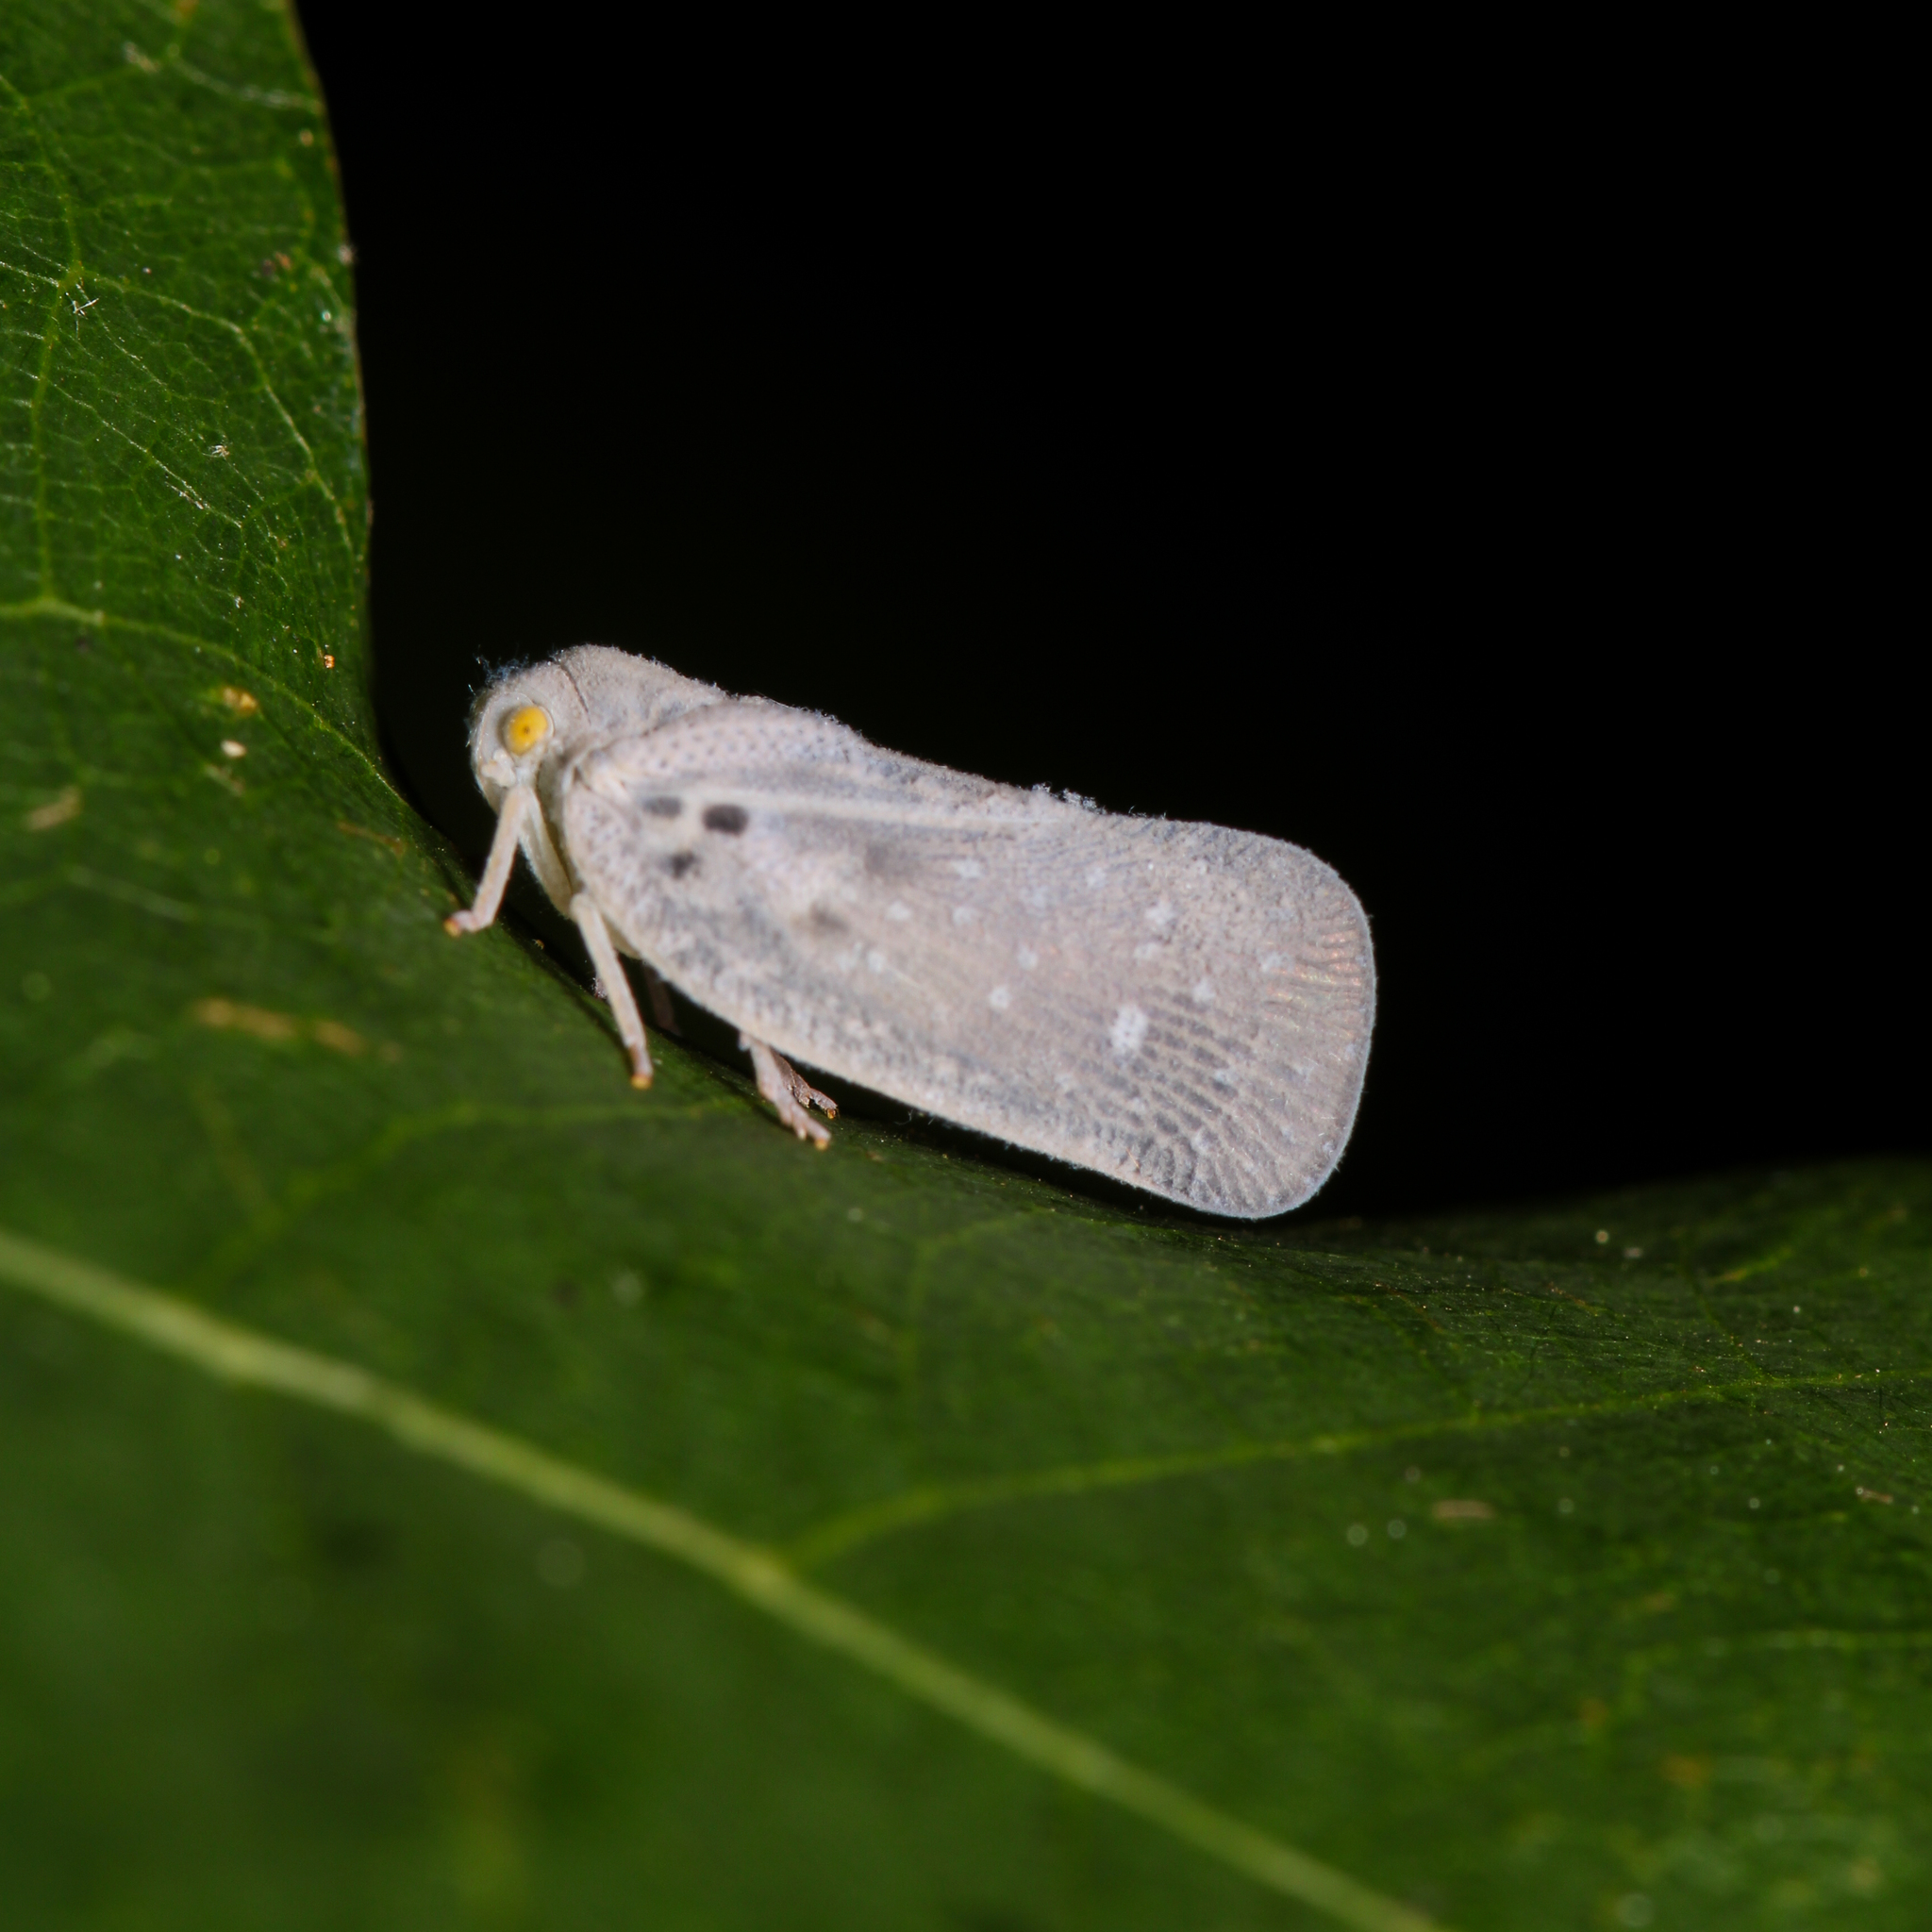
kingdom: Animalia
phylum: Arthropoda
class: Insecta
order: Hemiptera
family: Flatidae
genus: Metcalfa
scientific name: Metcalfa pruinosa
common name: Citrus flatid planthopper
